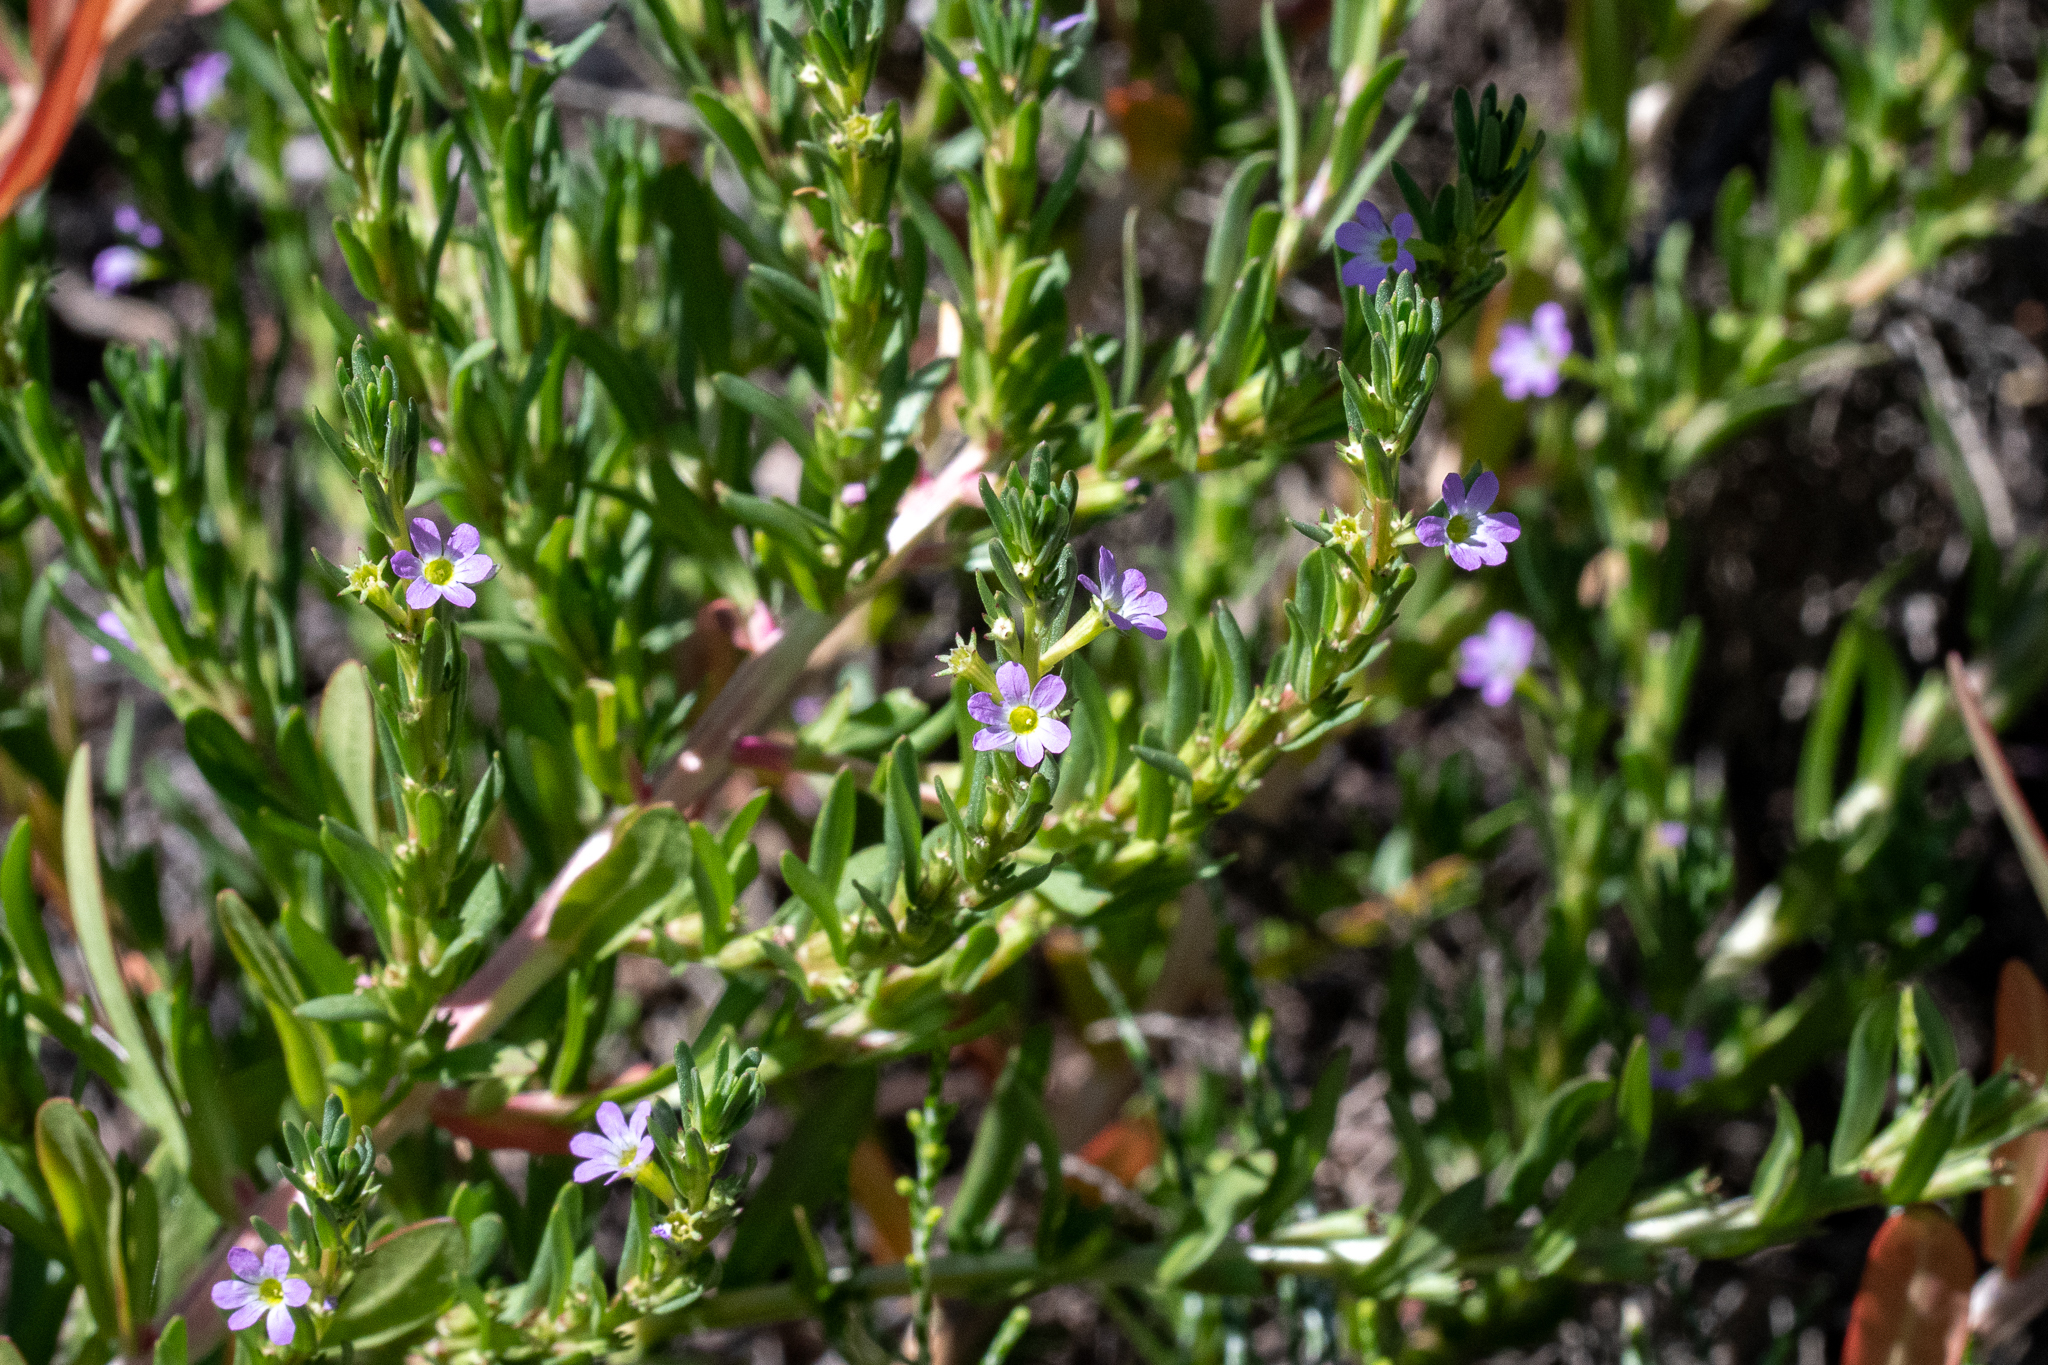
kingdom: Plantae
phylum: Tracheophyta
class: Magnoliopsida
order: Myrtales
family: Lythraceae
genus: Lythrum
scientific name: Lythrum hyssopifolia
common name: Grass-poly
